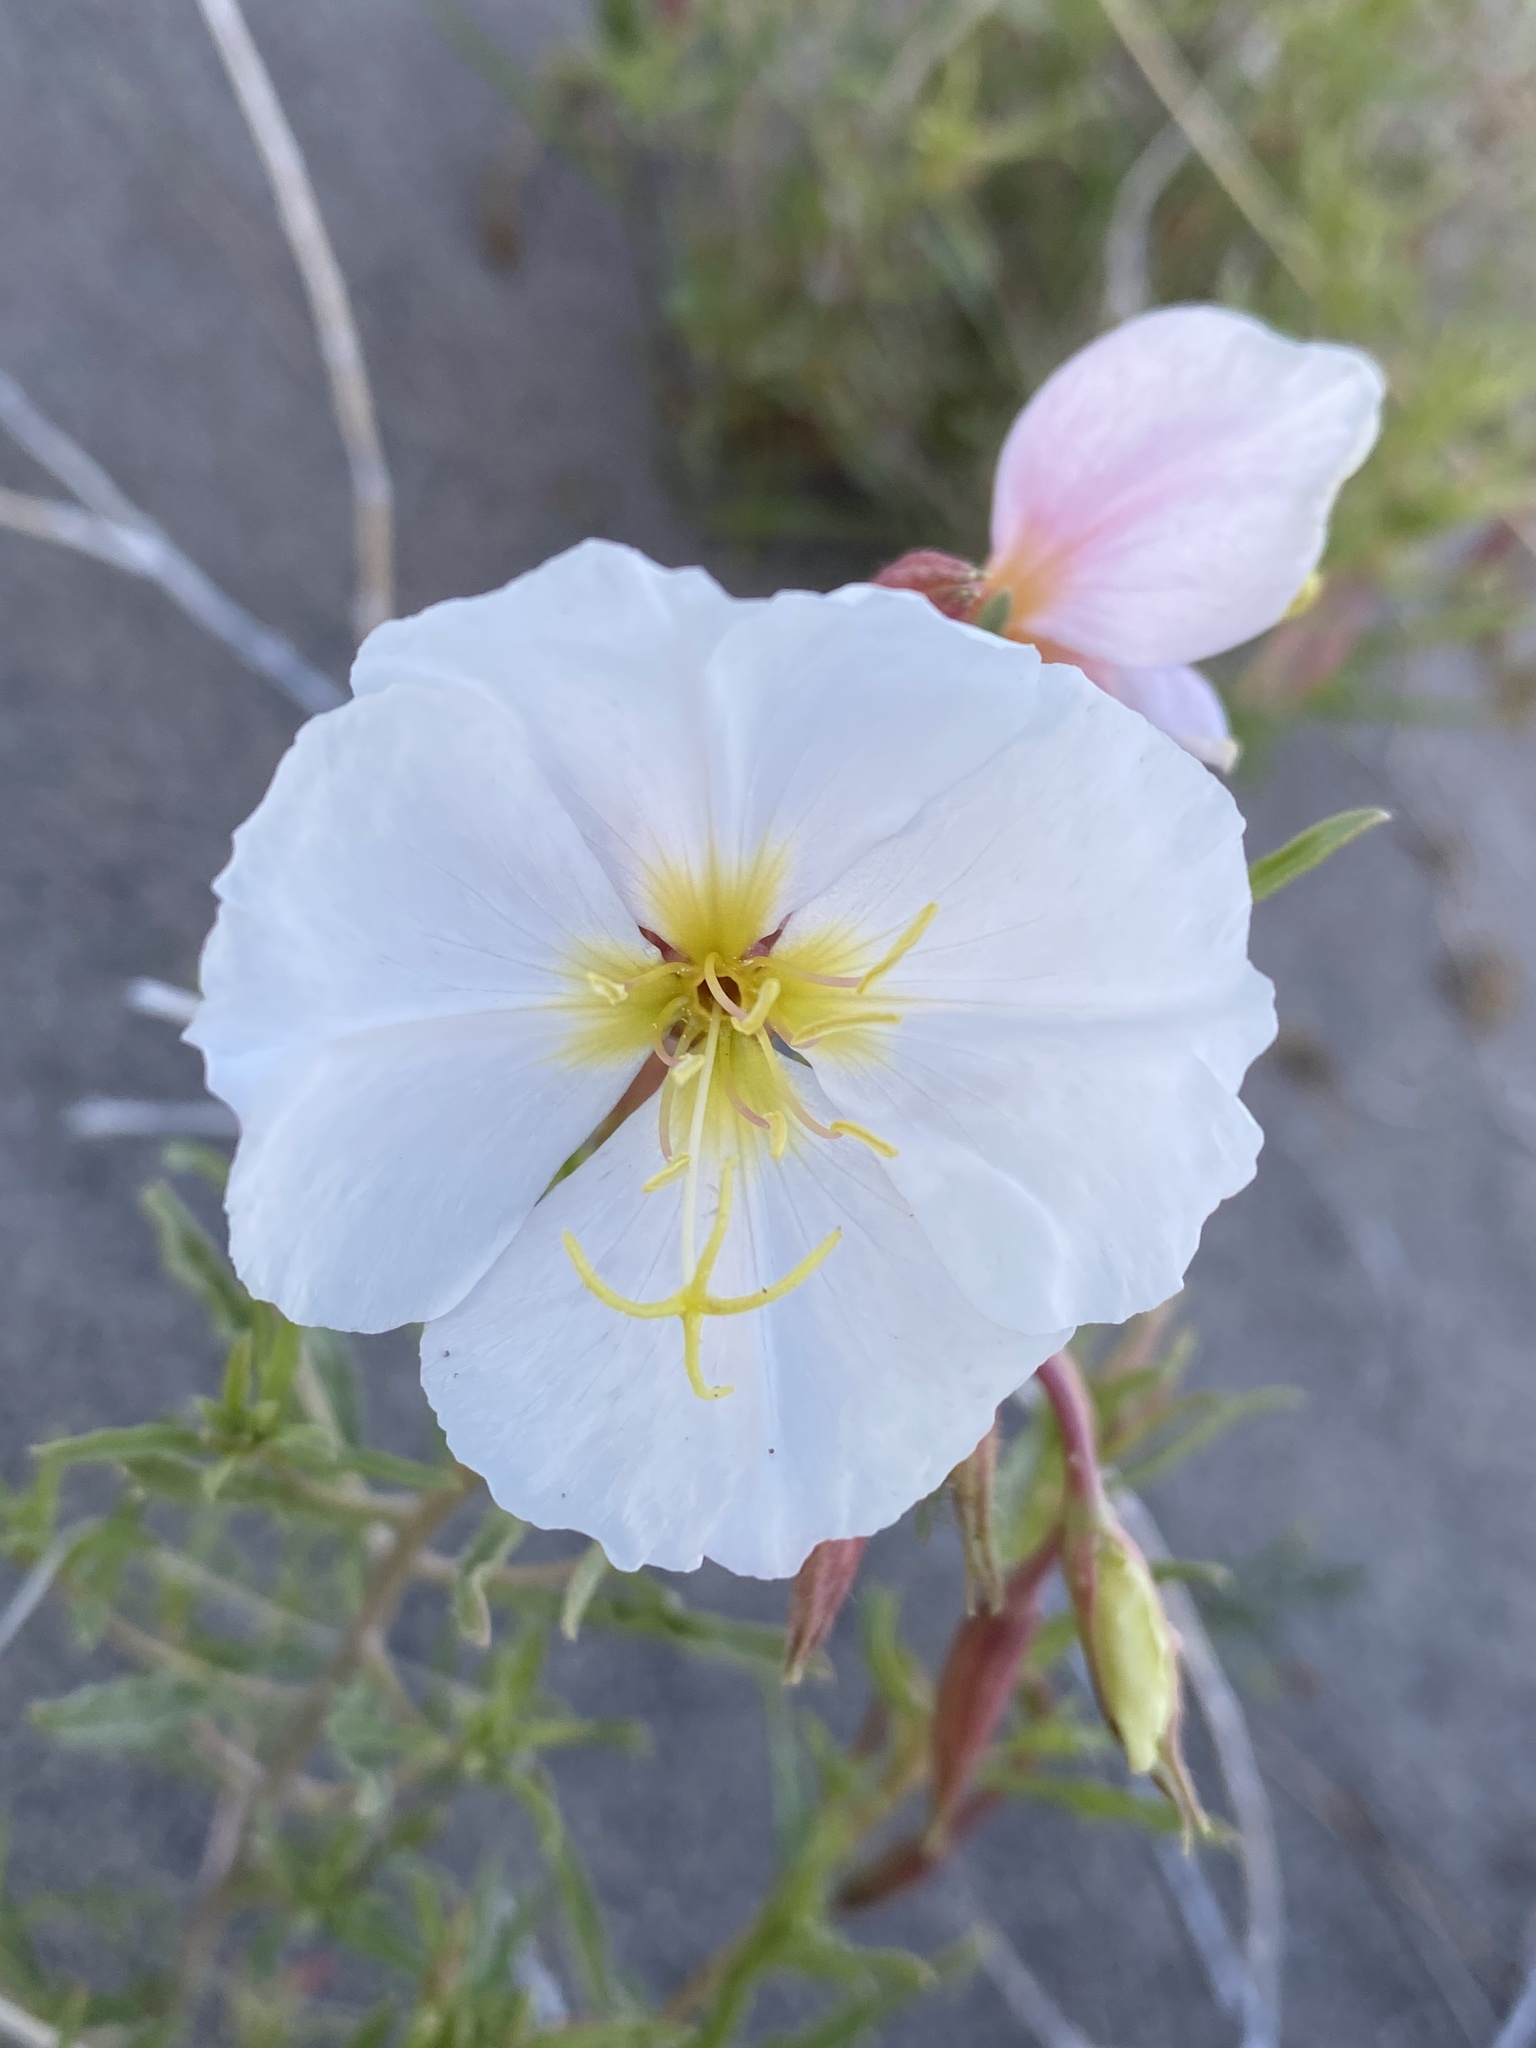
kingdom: Plantae
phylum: Tracheophyta
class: Magnoliopsida
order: Myrtales
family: Onagraceae
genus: Oenothera
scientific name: Oenothera pallida
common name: Pale evening-primrose
